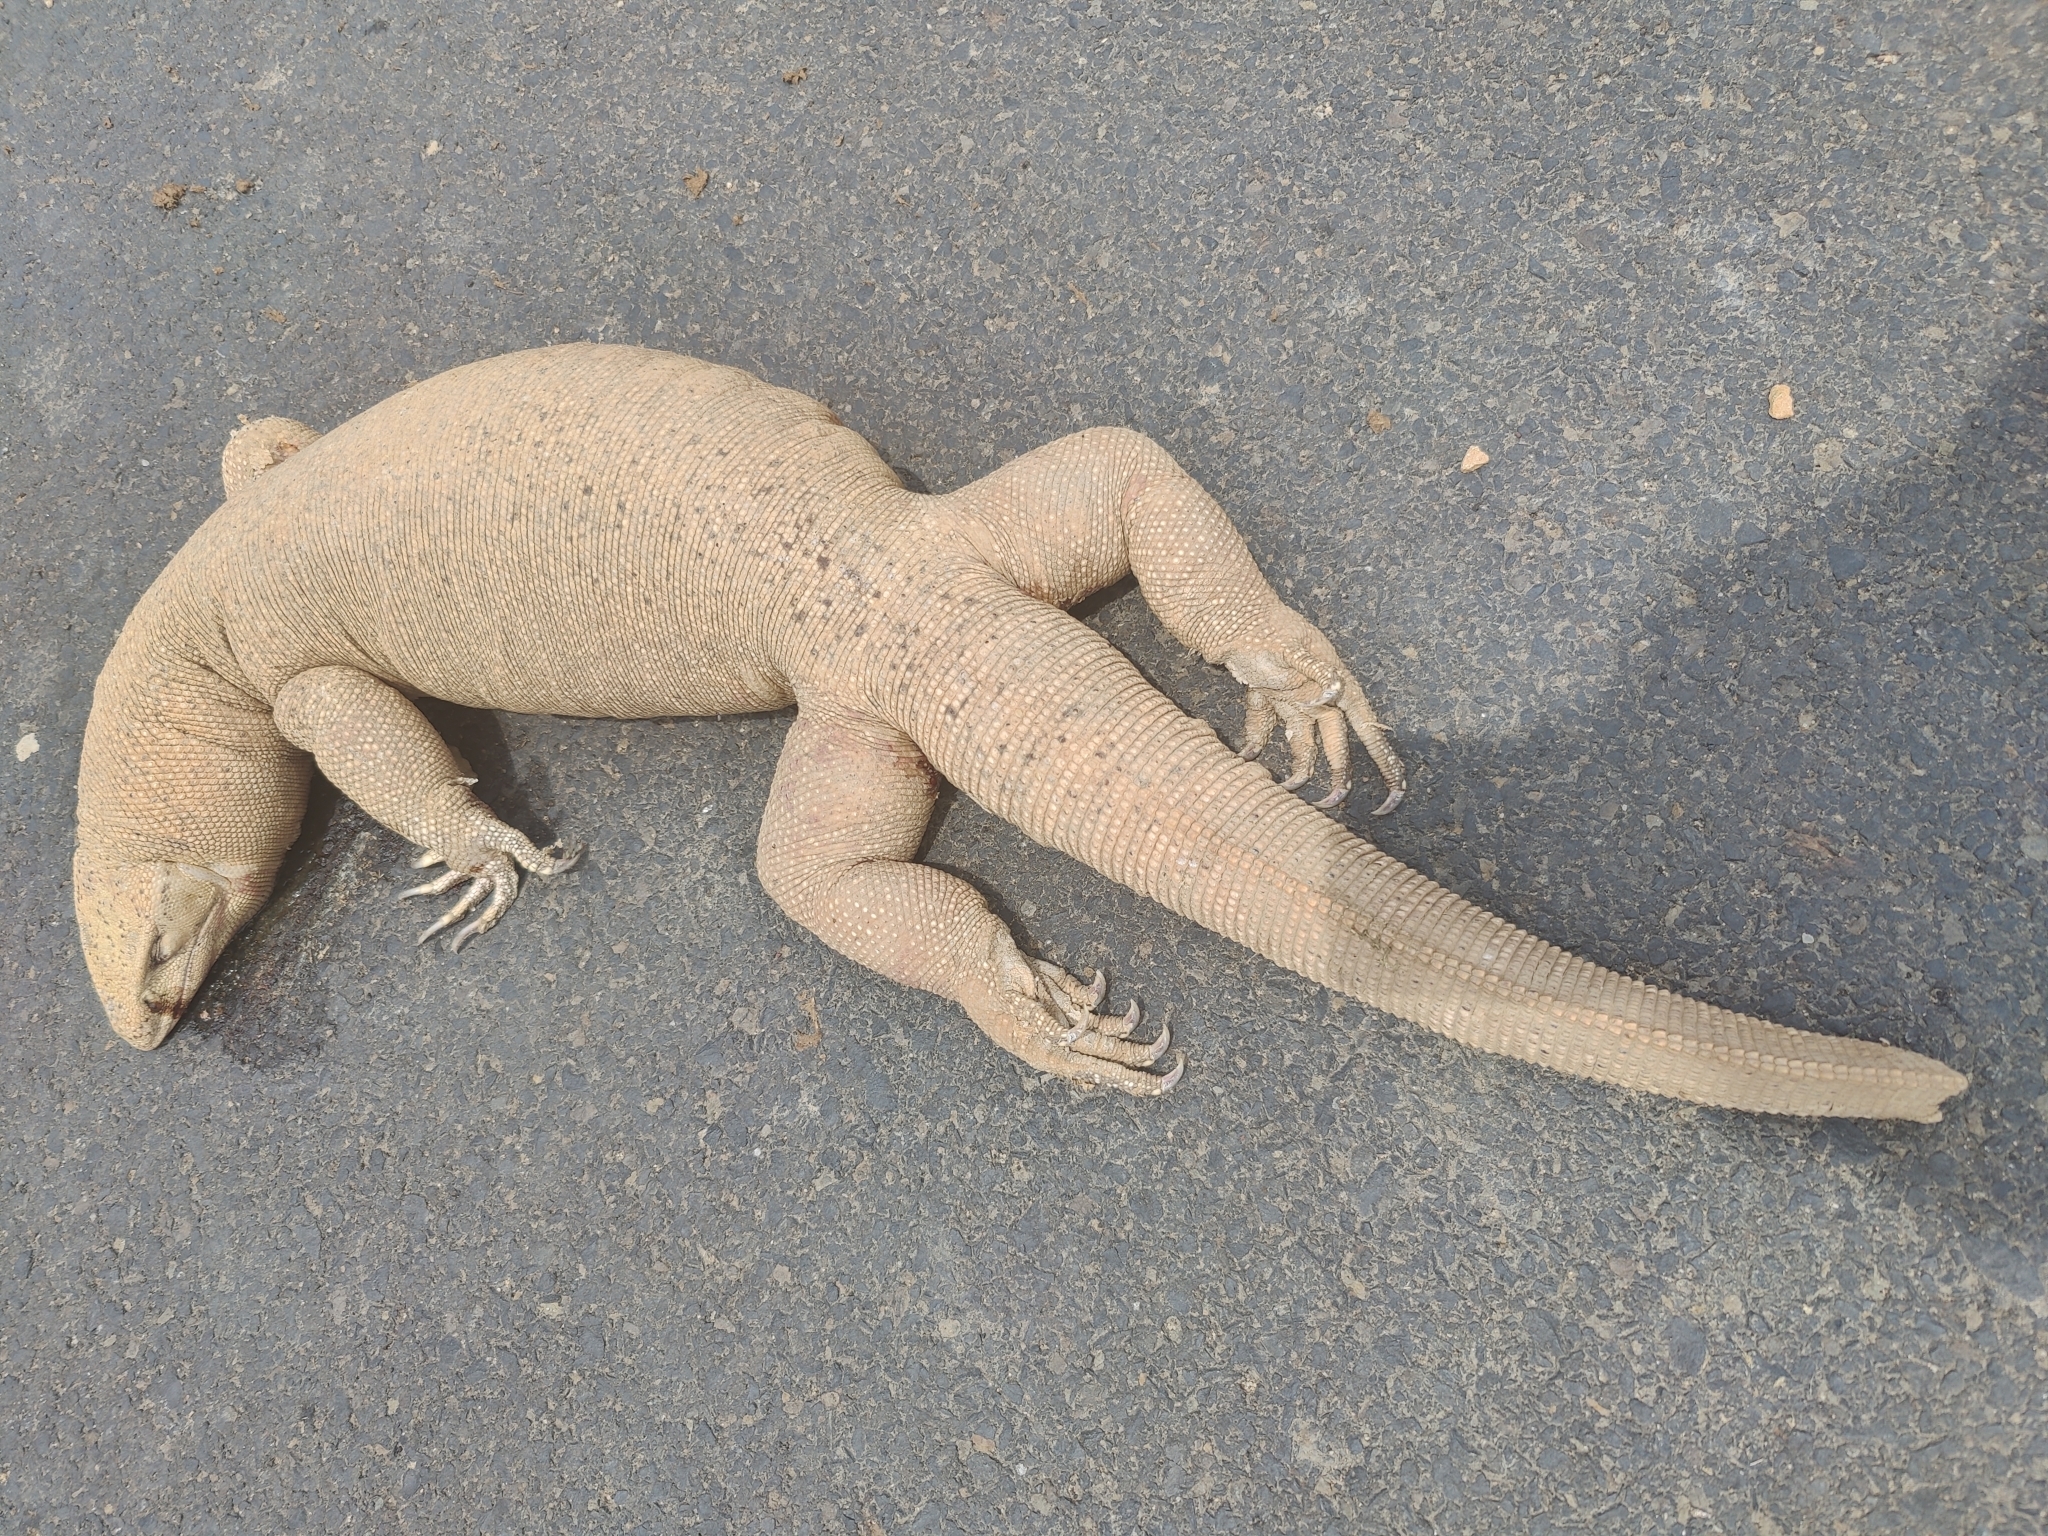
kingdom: Animalia
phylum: Chordata
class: Squamata
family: Varanidae
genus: Varanus
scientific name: Varanus bengalensis
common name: Bengal monitor
